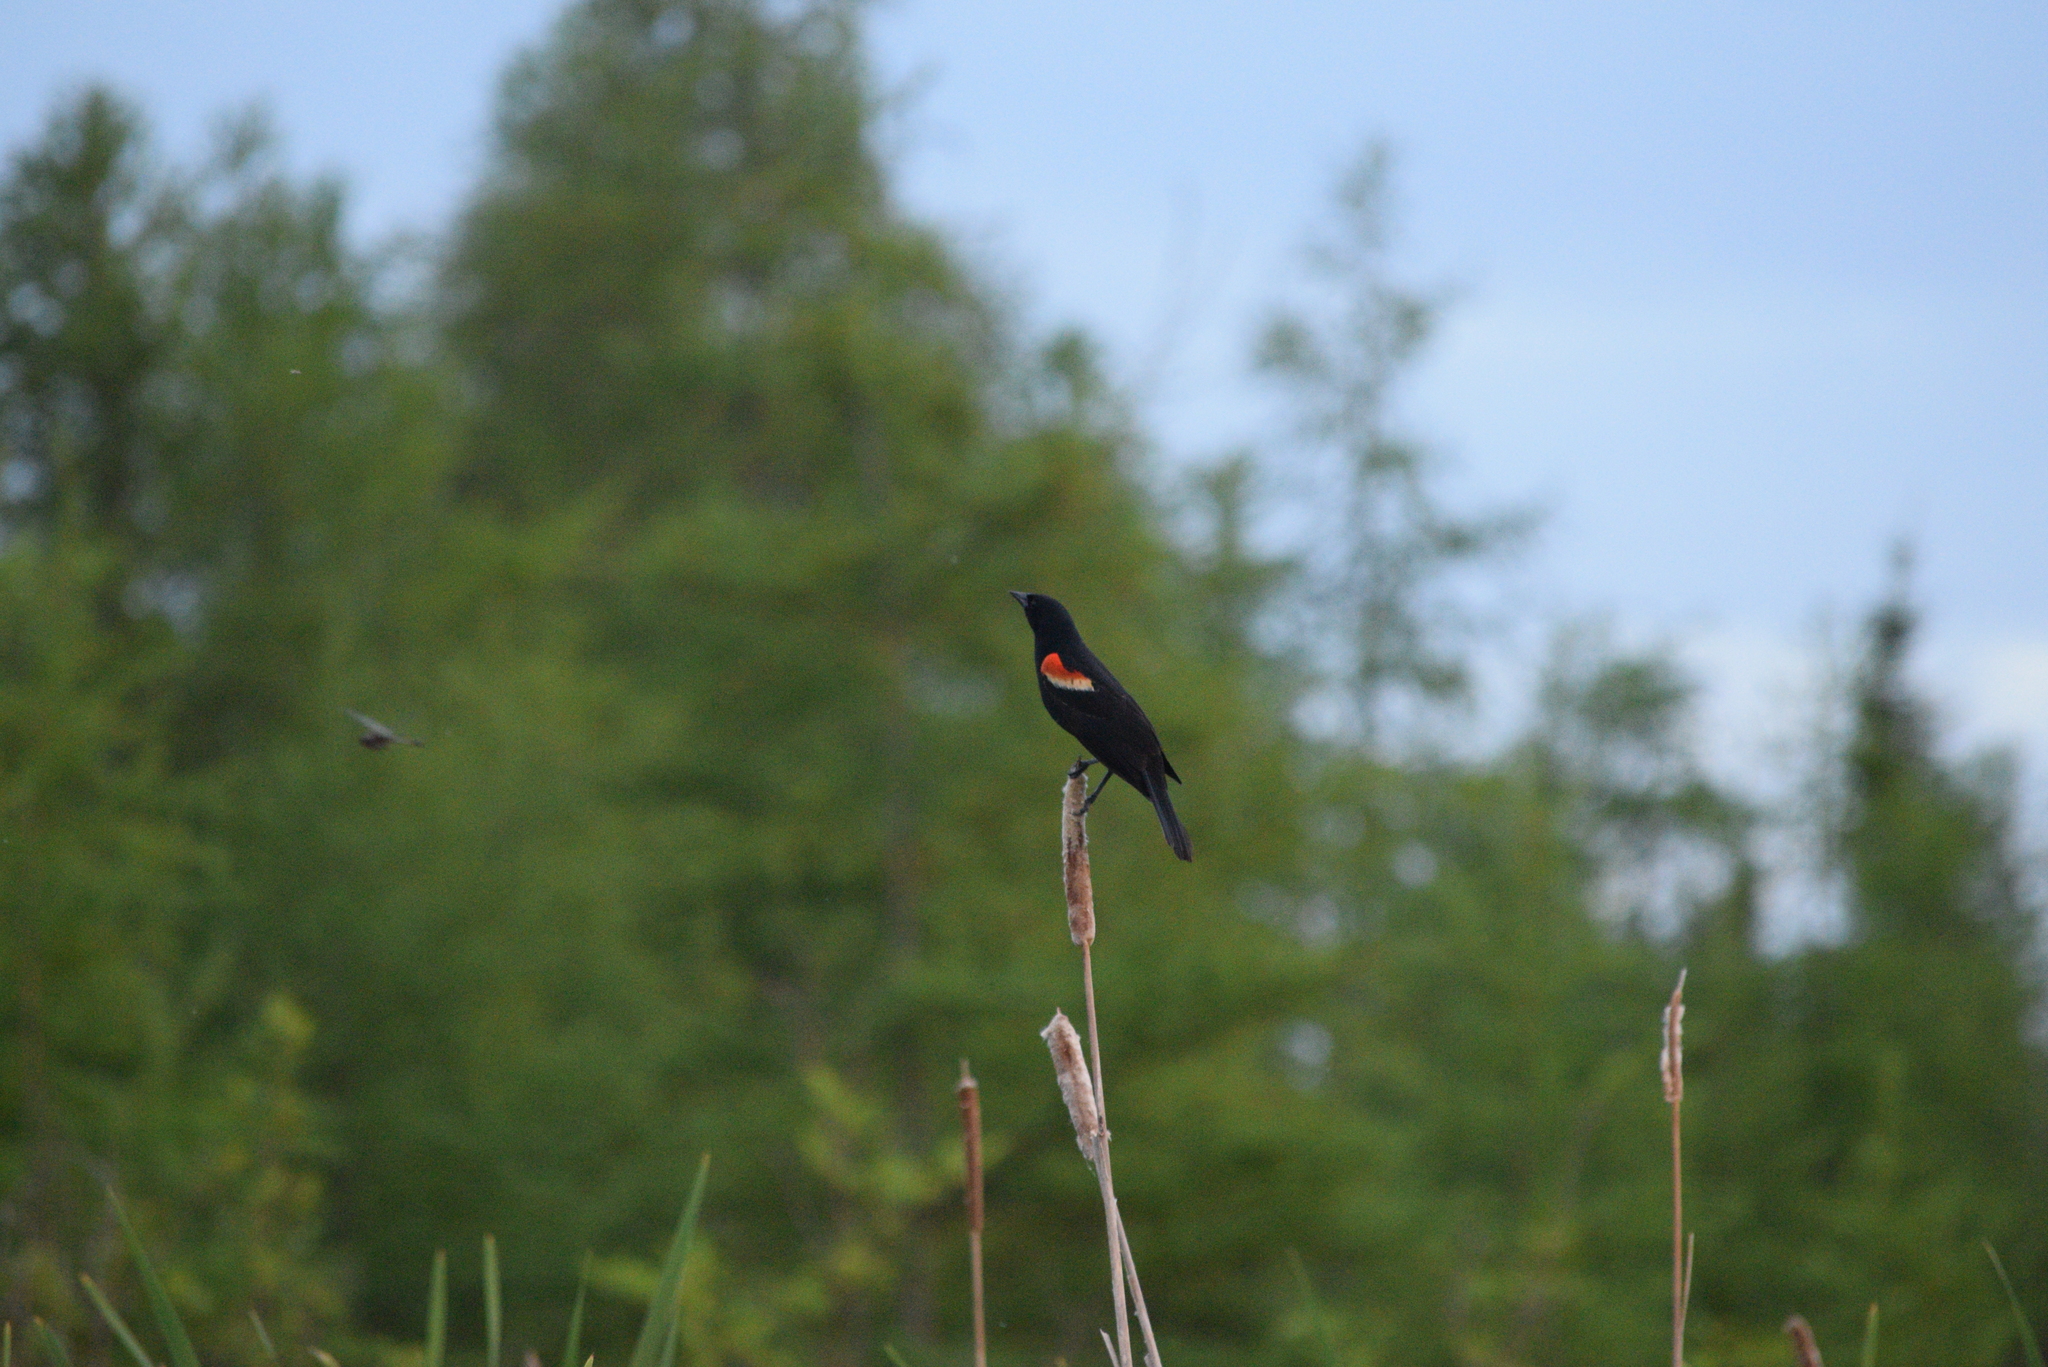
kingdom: Animalia
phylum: Chordata
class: Aves
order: Passeriformes
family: Icteridae
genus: Agelaius
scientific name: Agelaius phoeniceus
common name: Red-winged blackbird
